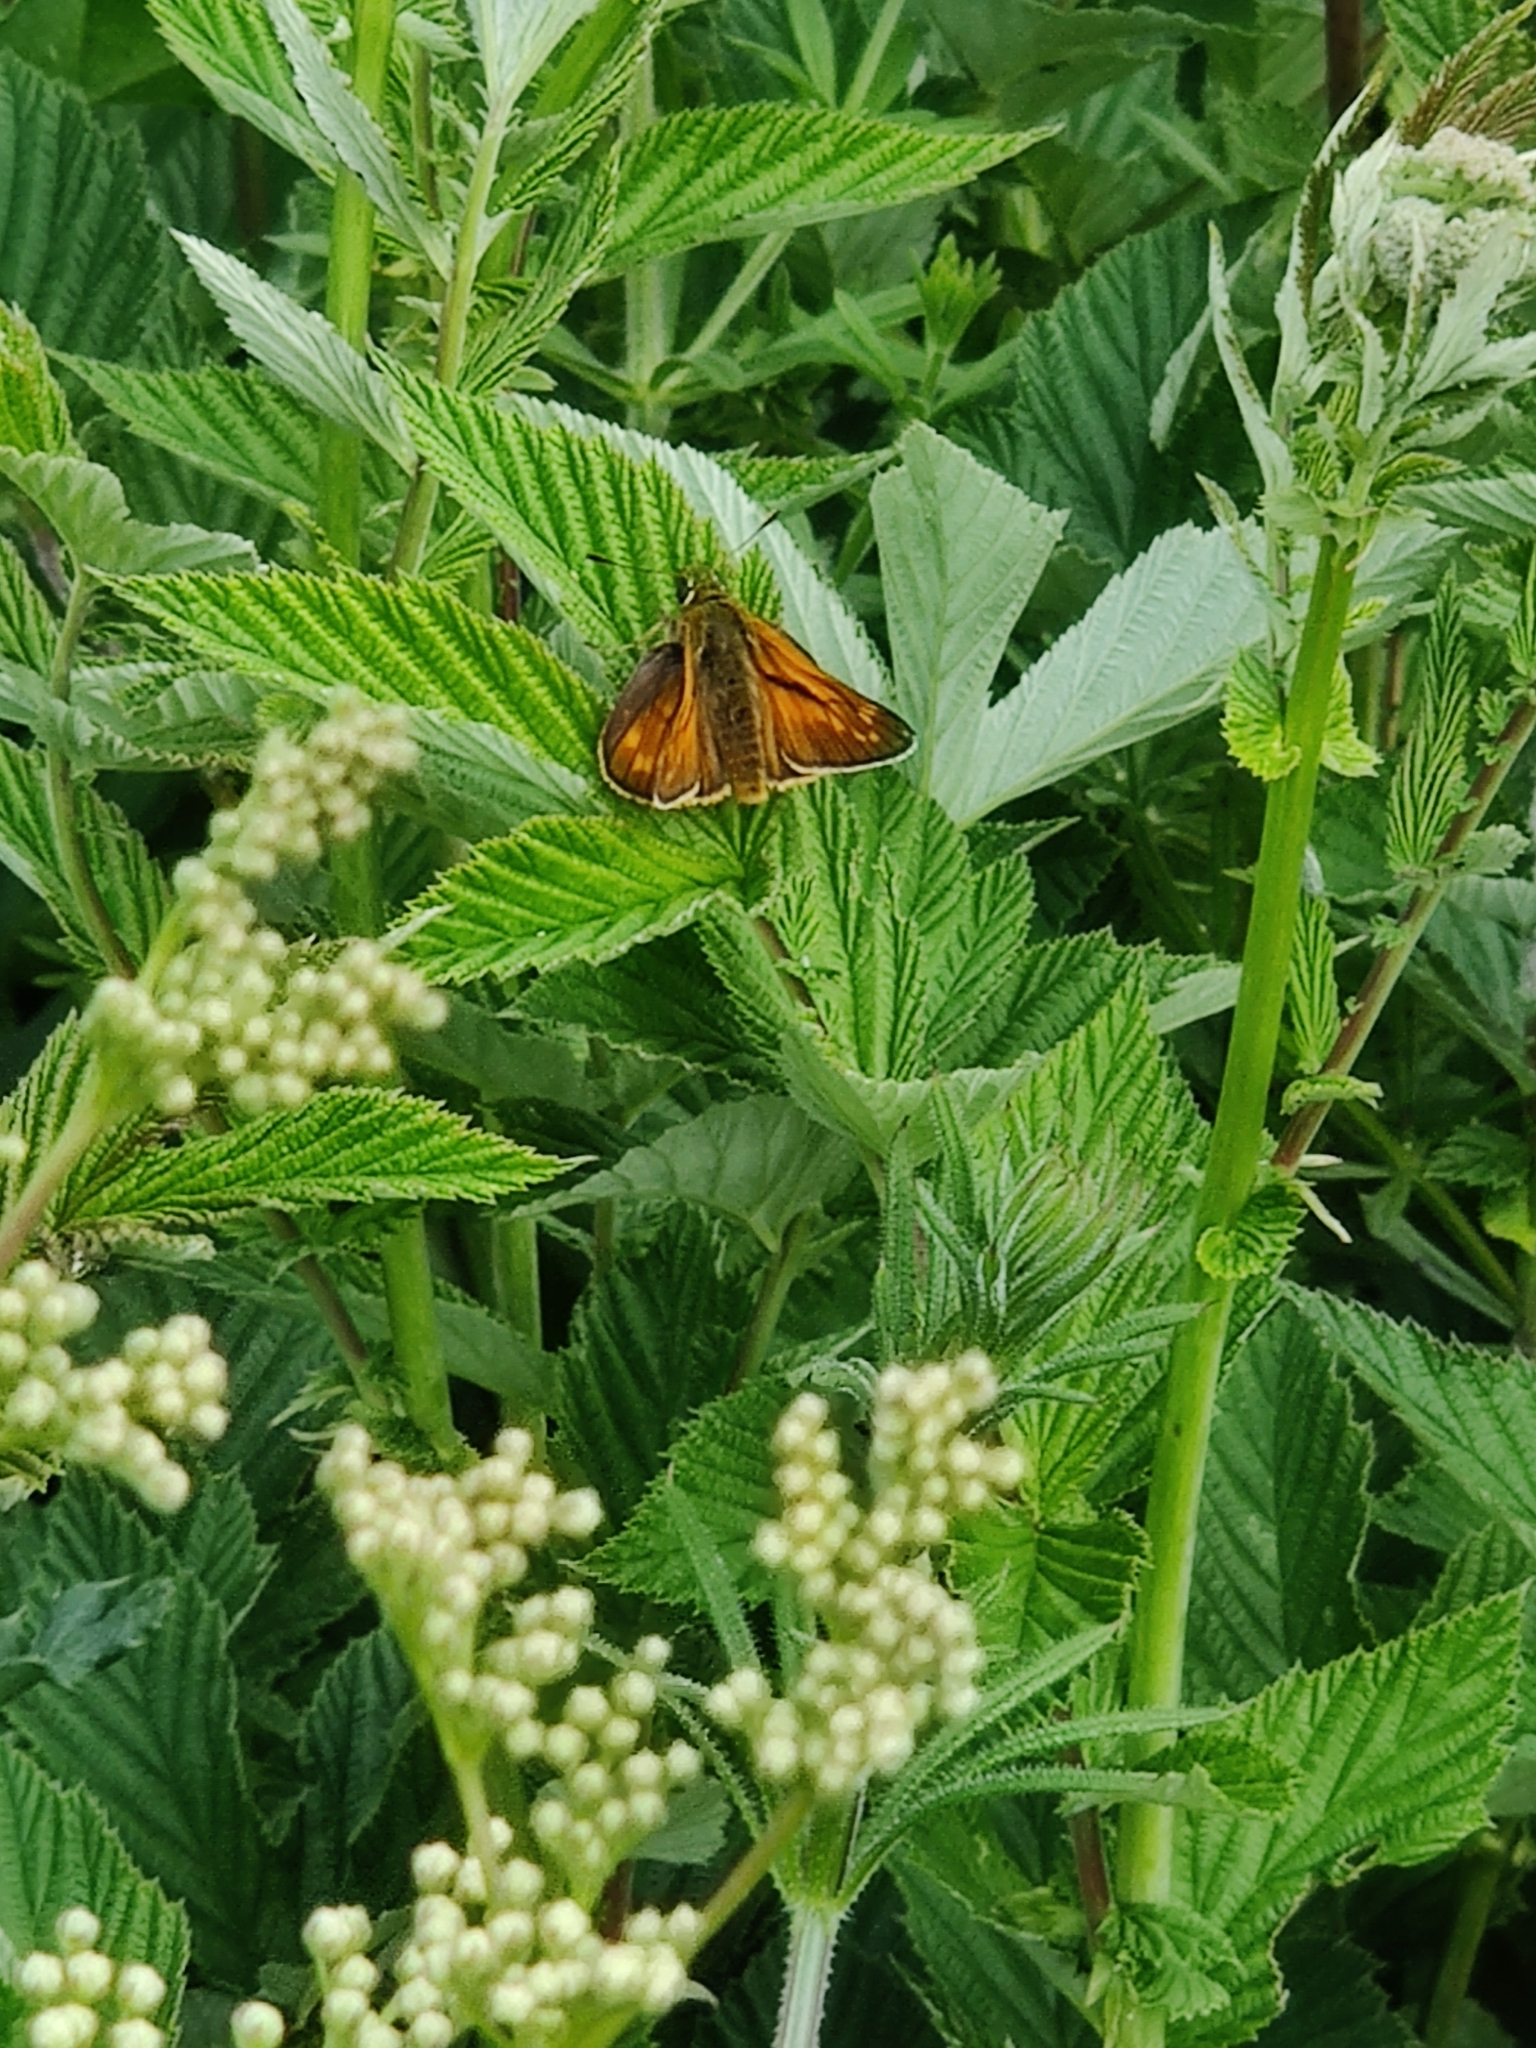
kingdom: Animalia
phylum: Arthropoda
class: Insecta
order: Lepidoptera
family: Hesperiidae
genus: Ochlodes
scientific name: Ochlodes venata
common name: Large skipper
